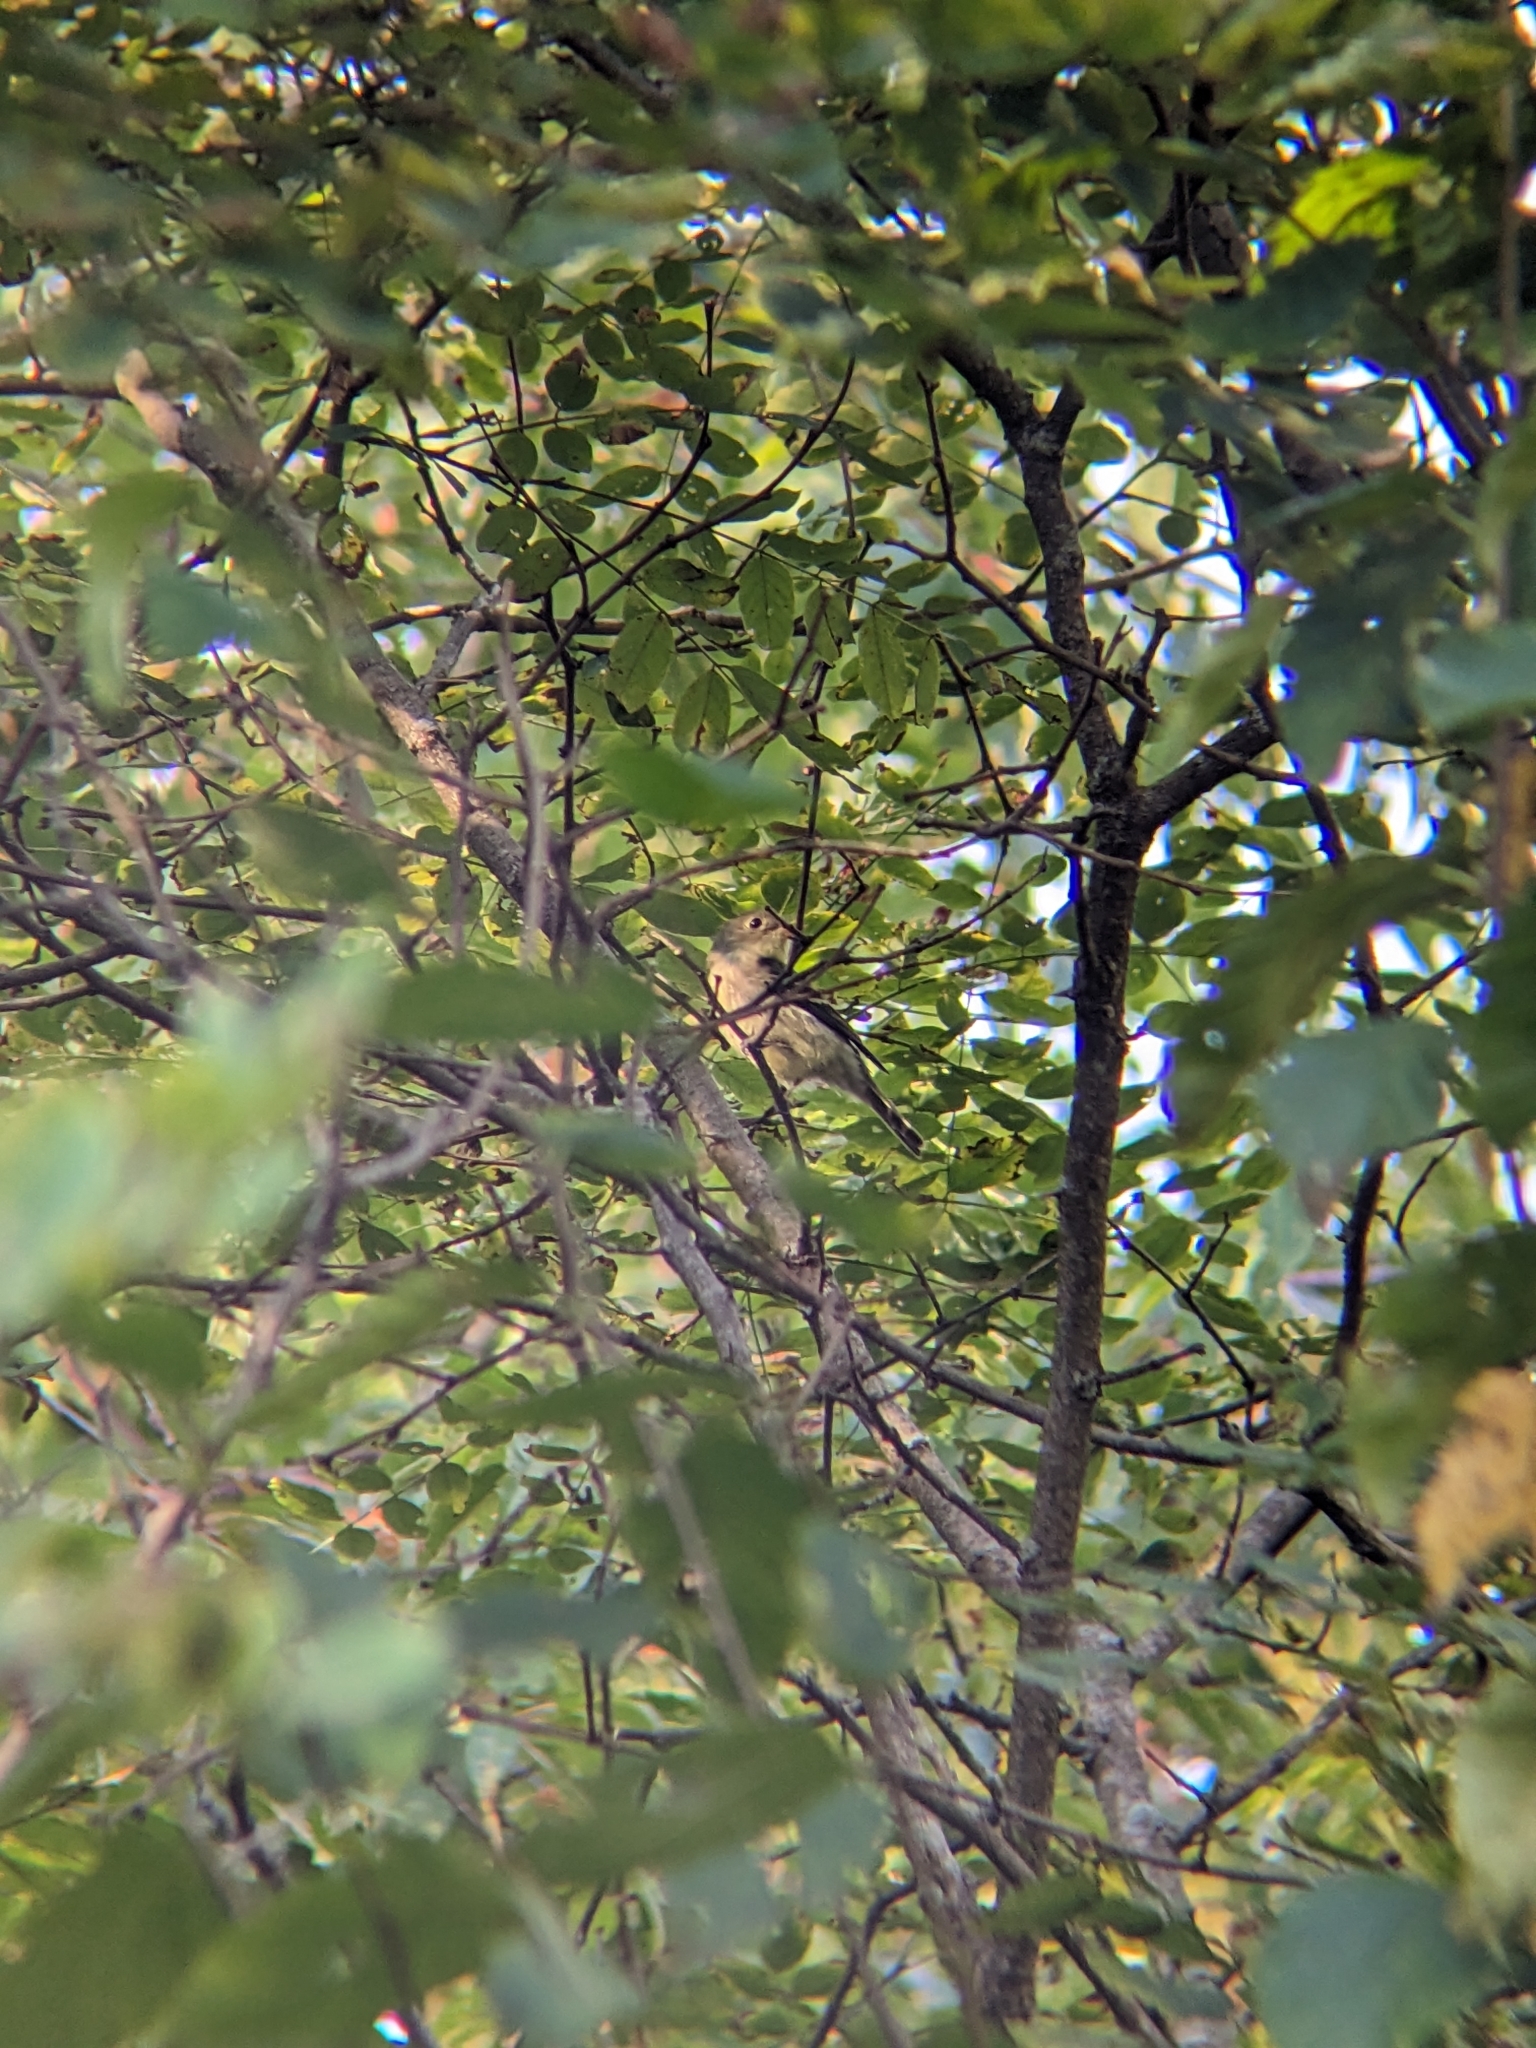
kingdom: Animalia
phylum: Chordata
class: Aves
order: Passeriformes
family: Tyrannidae
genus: Empidonax
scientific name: Empidonax flaviventris
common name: Yellow-bellied flycatcher
